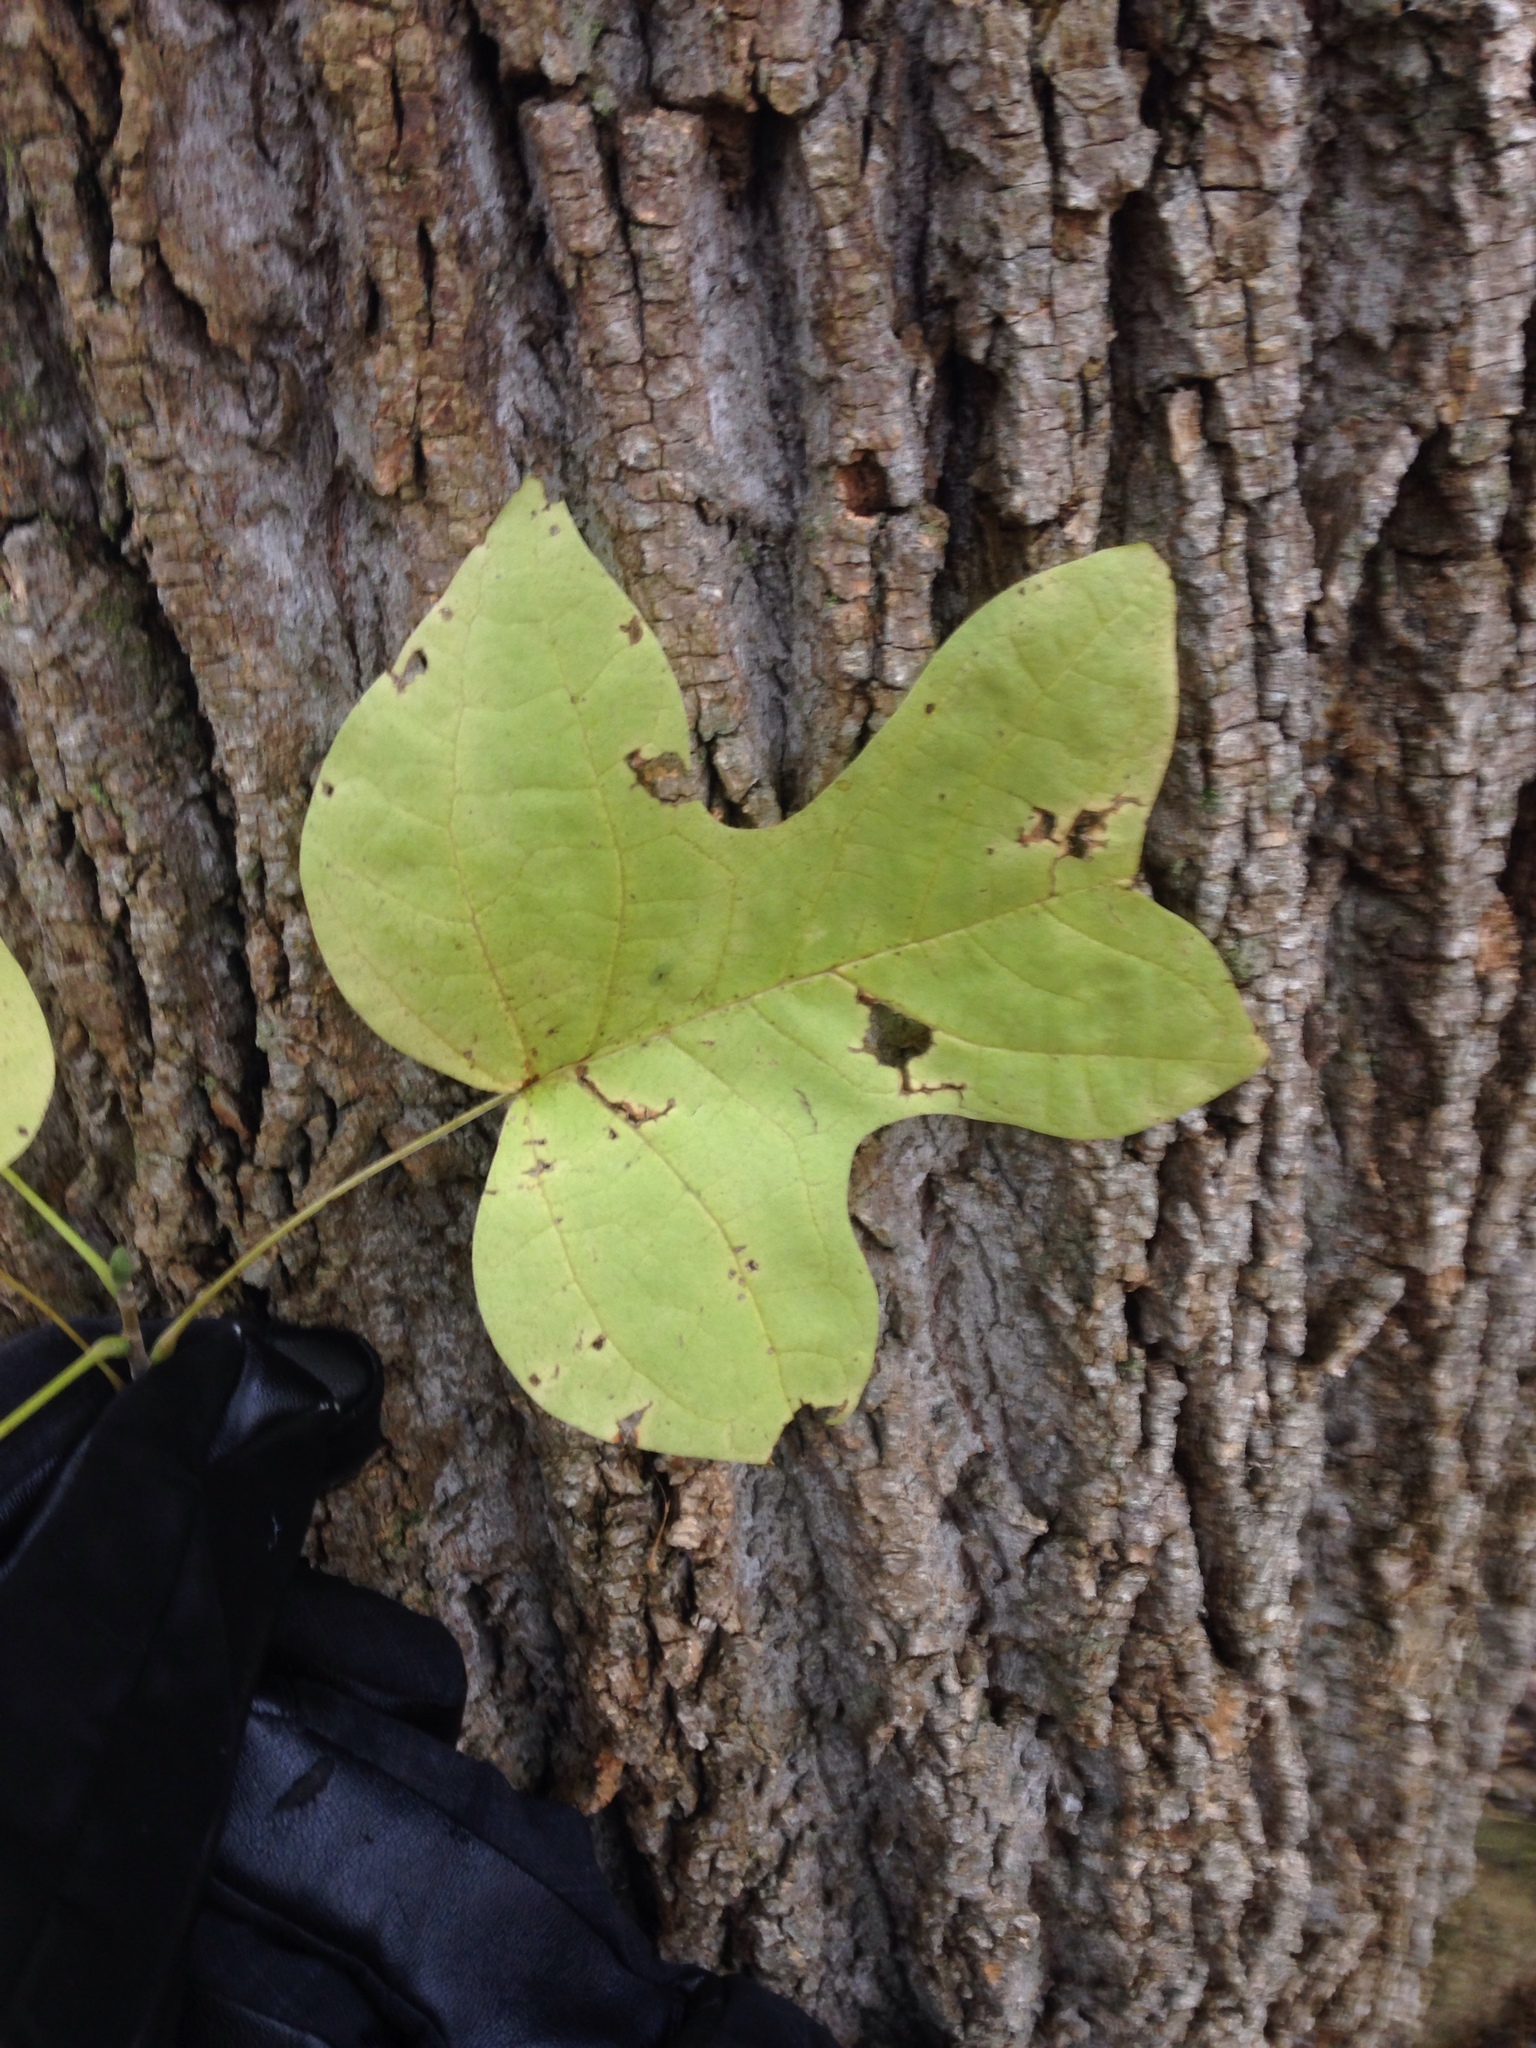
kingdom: Plantae
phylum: Tracheophyta
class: Magnoliopsida
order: Magnoliales
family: Magnoliaceae
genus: Liriodendron
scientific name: Liriodendron tulipifera
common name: Tulip tree
